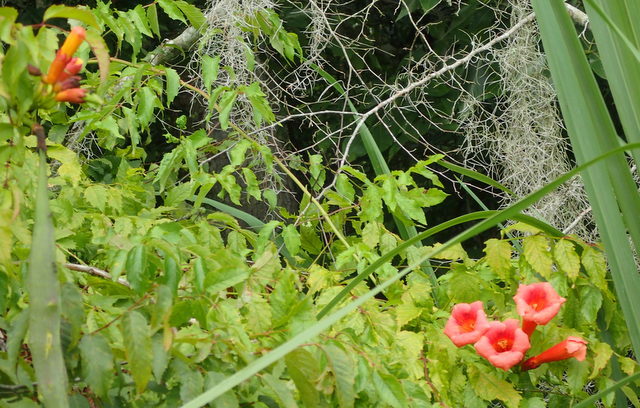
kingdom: Plantae
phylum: Tracheophyta
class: Magnoliopsida
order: Lamiales
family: Bignoniaceae
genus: Campsis
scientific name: Campsis radicans
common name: Trumpet-creeper
